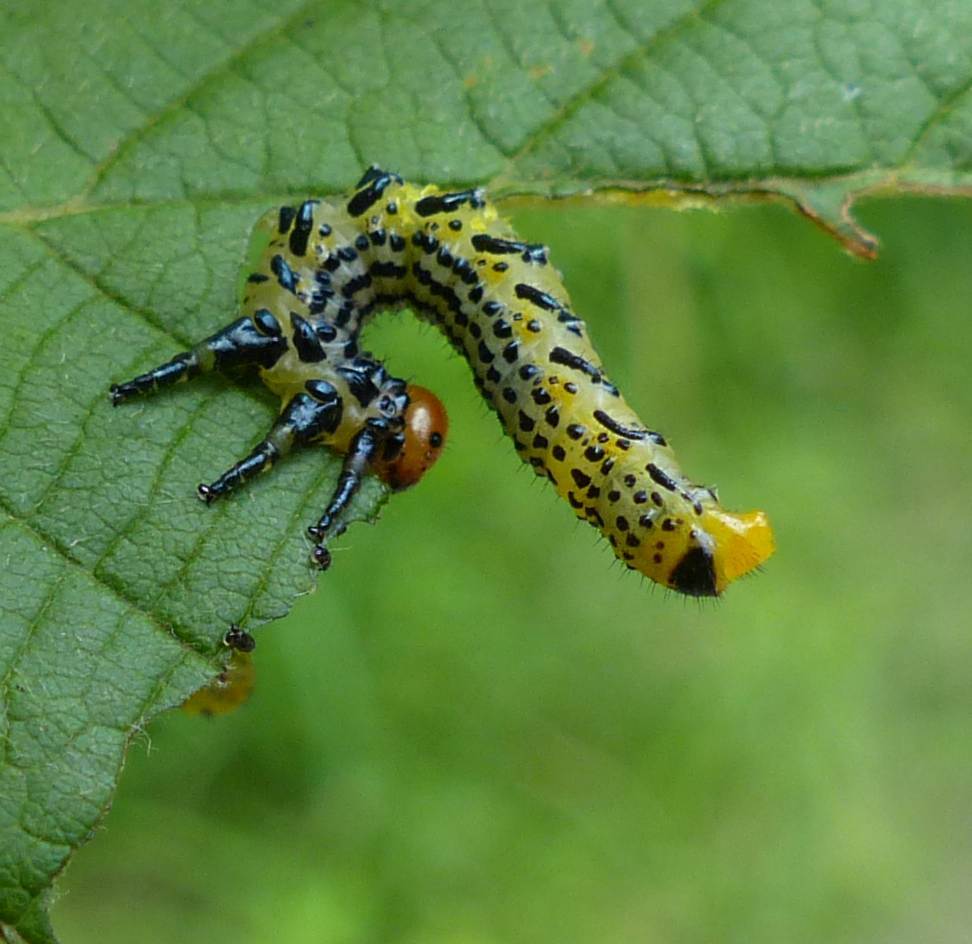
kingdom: Animalia
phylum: Arthropoda
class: Insecta
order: Hymenoptera
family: Argidae
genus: Arge
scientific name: Arge
